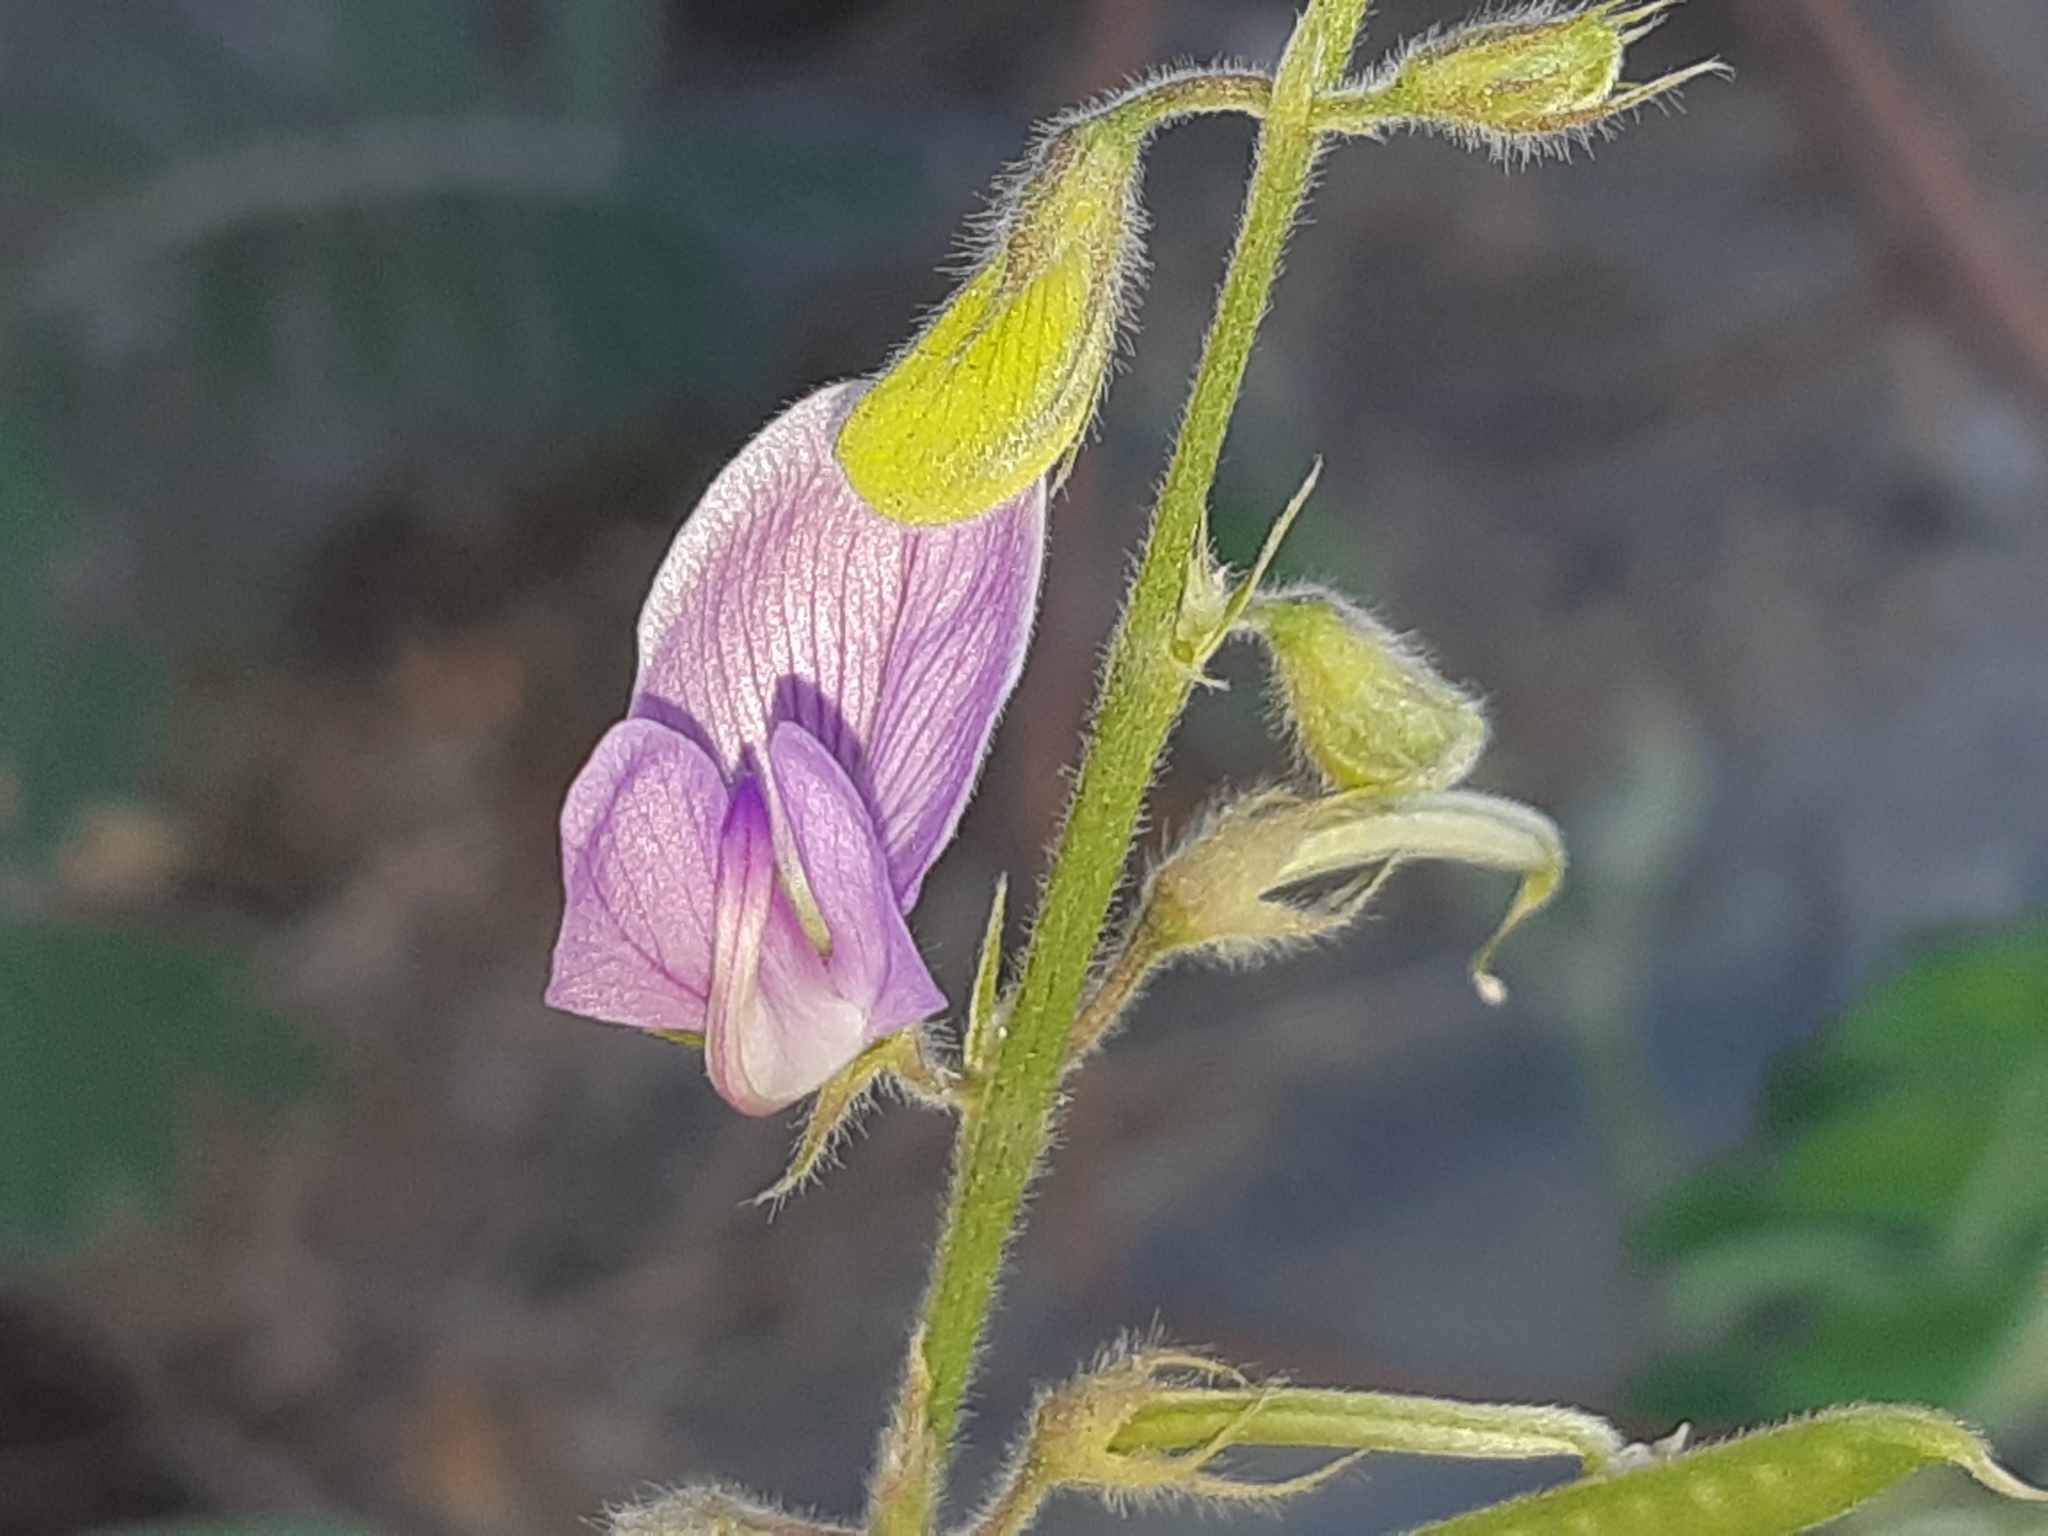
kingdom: Plantae
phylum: Tracheophyta
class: Magnoliopsida
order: Fabales
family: Fabaceae
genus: Coursetia
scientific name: Coursetia tumbezensis
